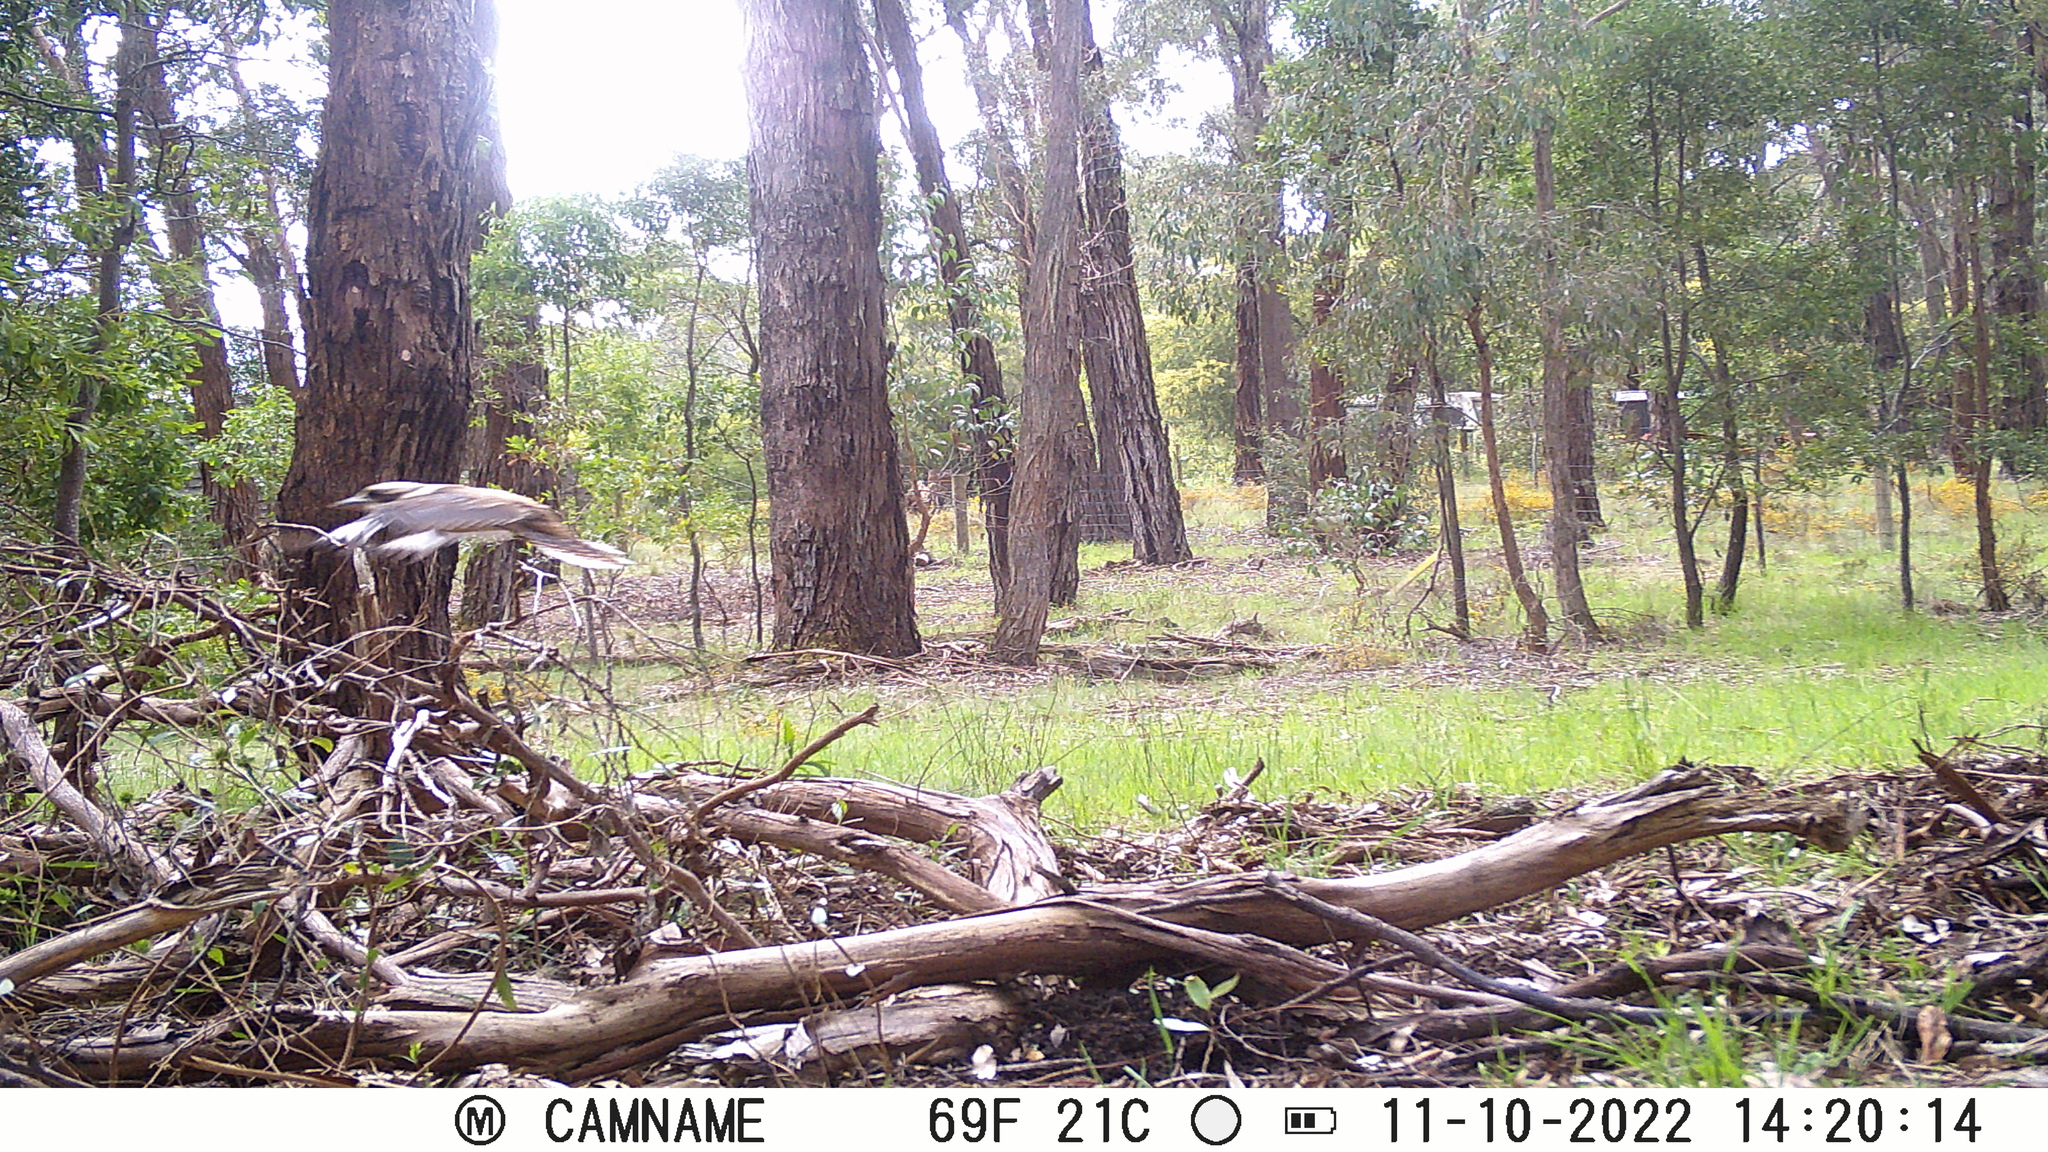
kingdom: Animalia
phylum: Chordata
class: Aves
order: Coraciiformes
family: Alcedinidae
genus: Dacelo
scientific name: Dacelo novaeguineae
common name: Laughing kookaburra
